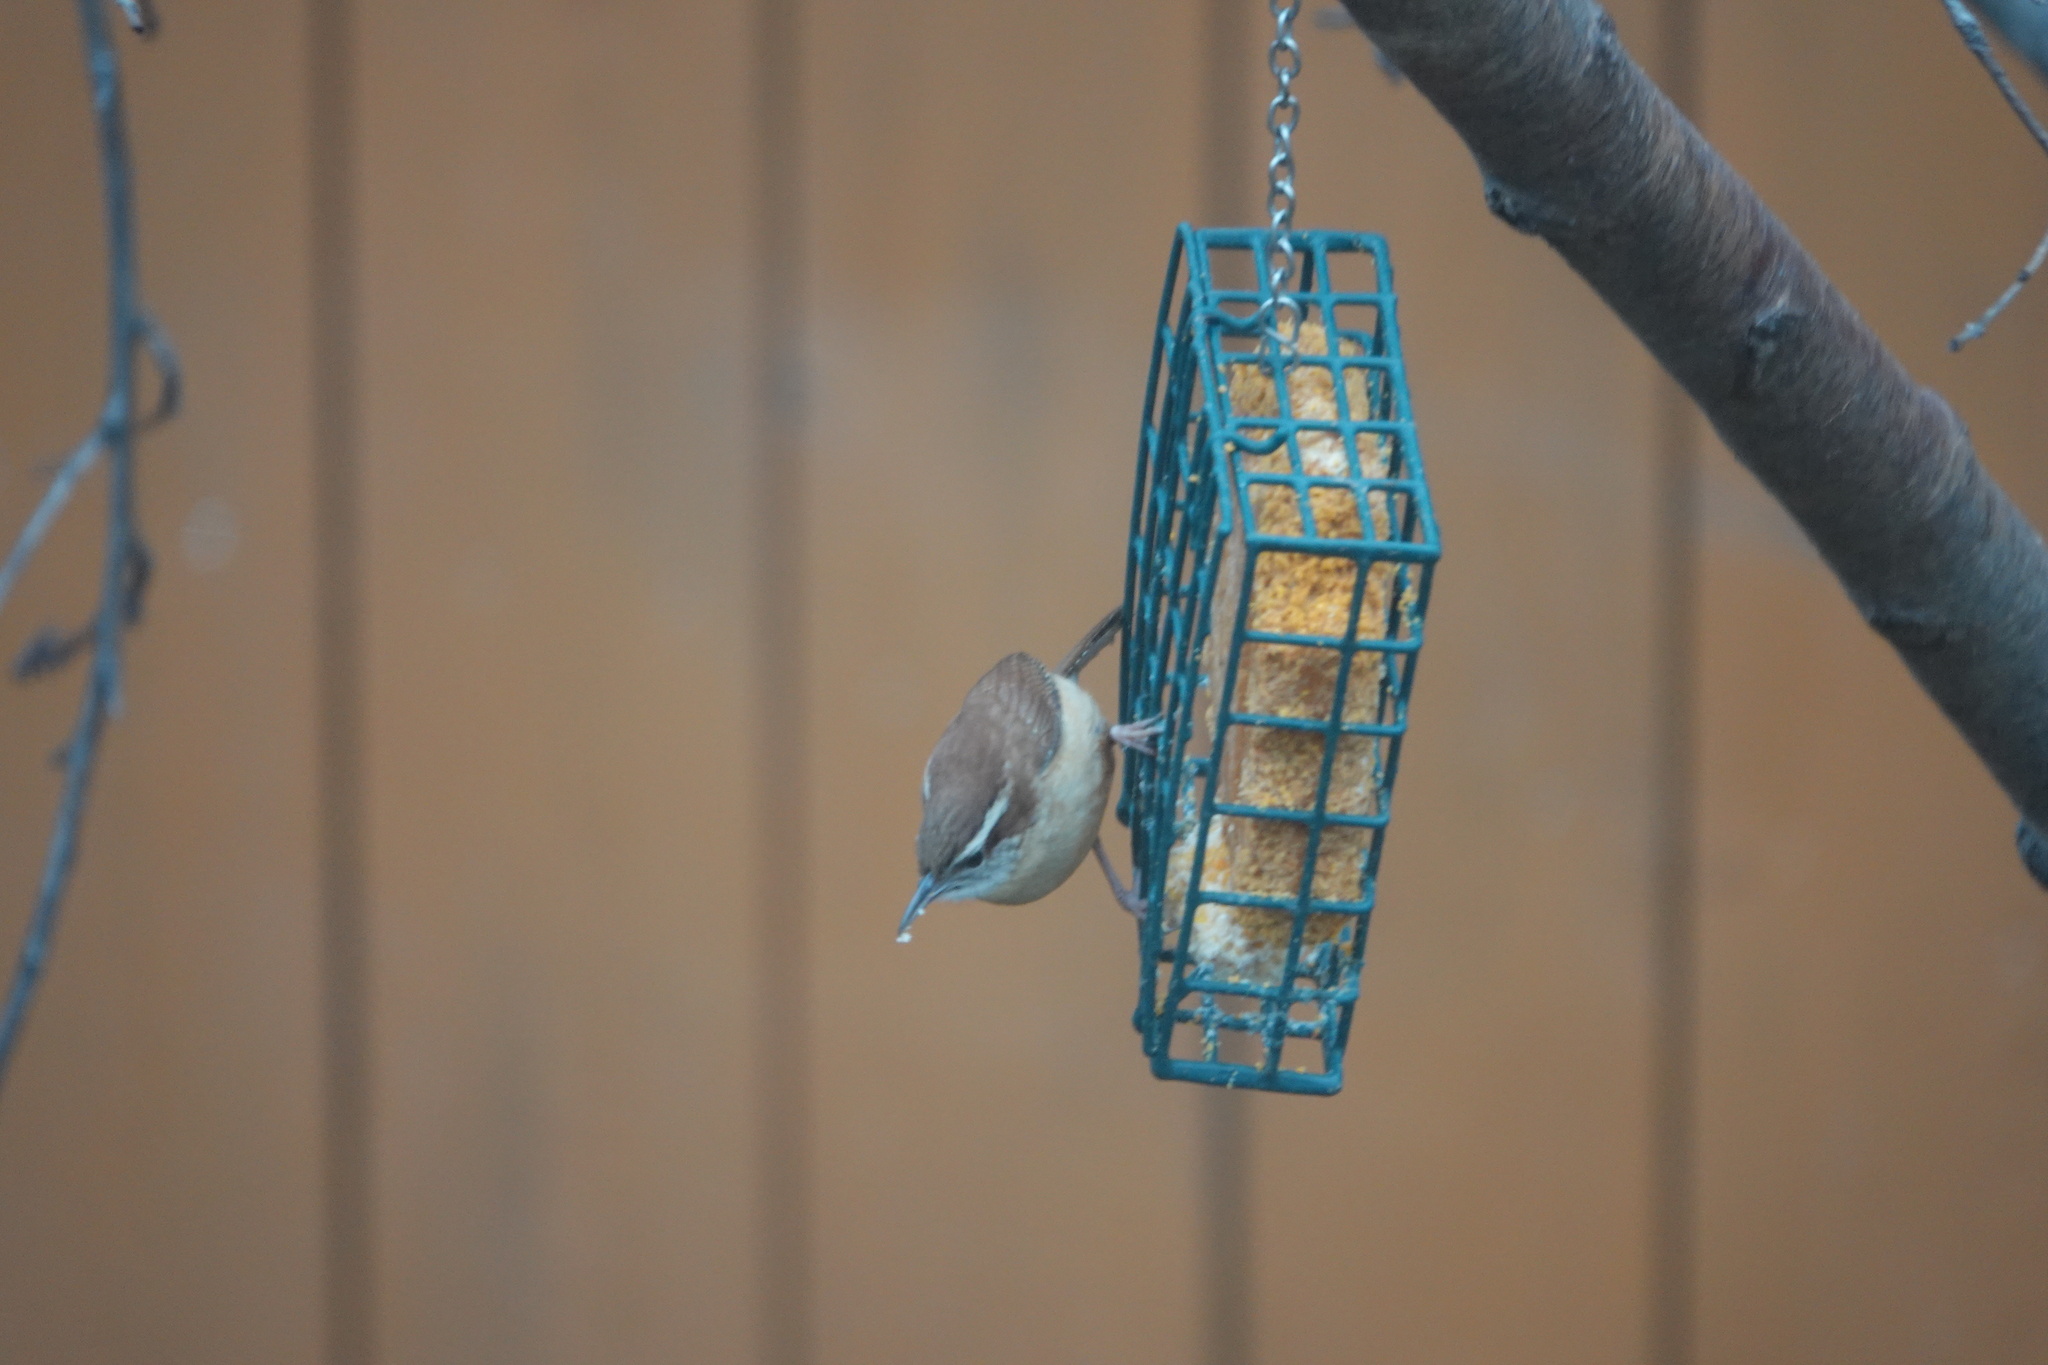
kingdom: Animalia
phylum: Chordata
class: Aves
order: Passeriformes
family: Troglodytidae
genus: Thryothorus
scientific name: Thryothorus ludovicianus
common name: Carolina wren
